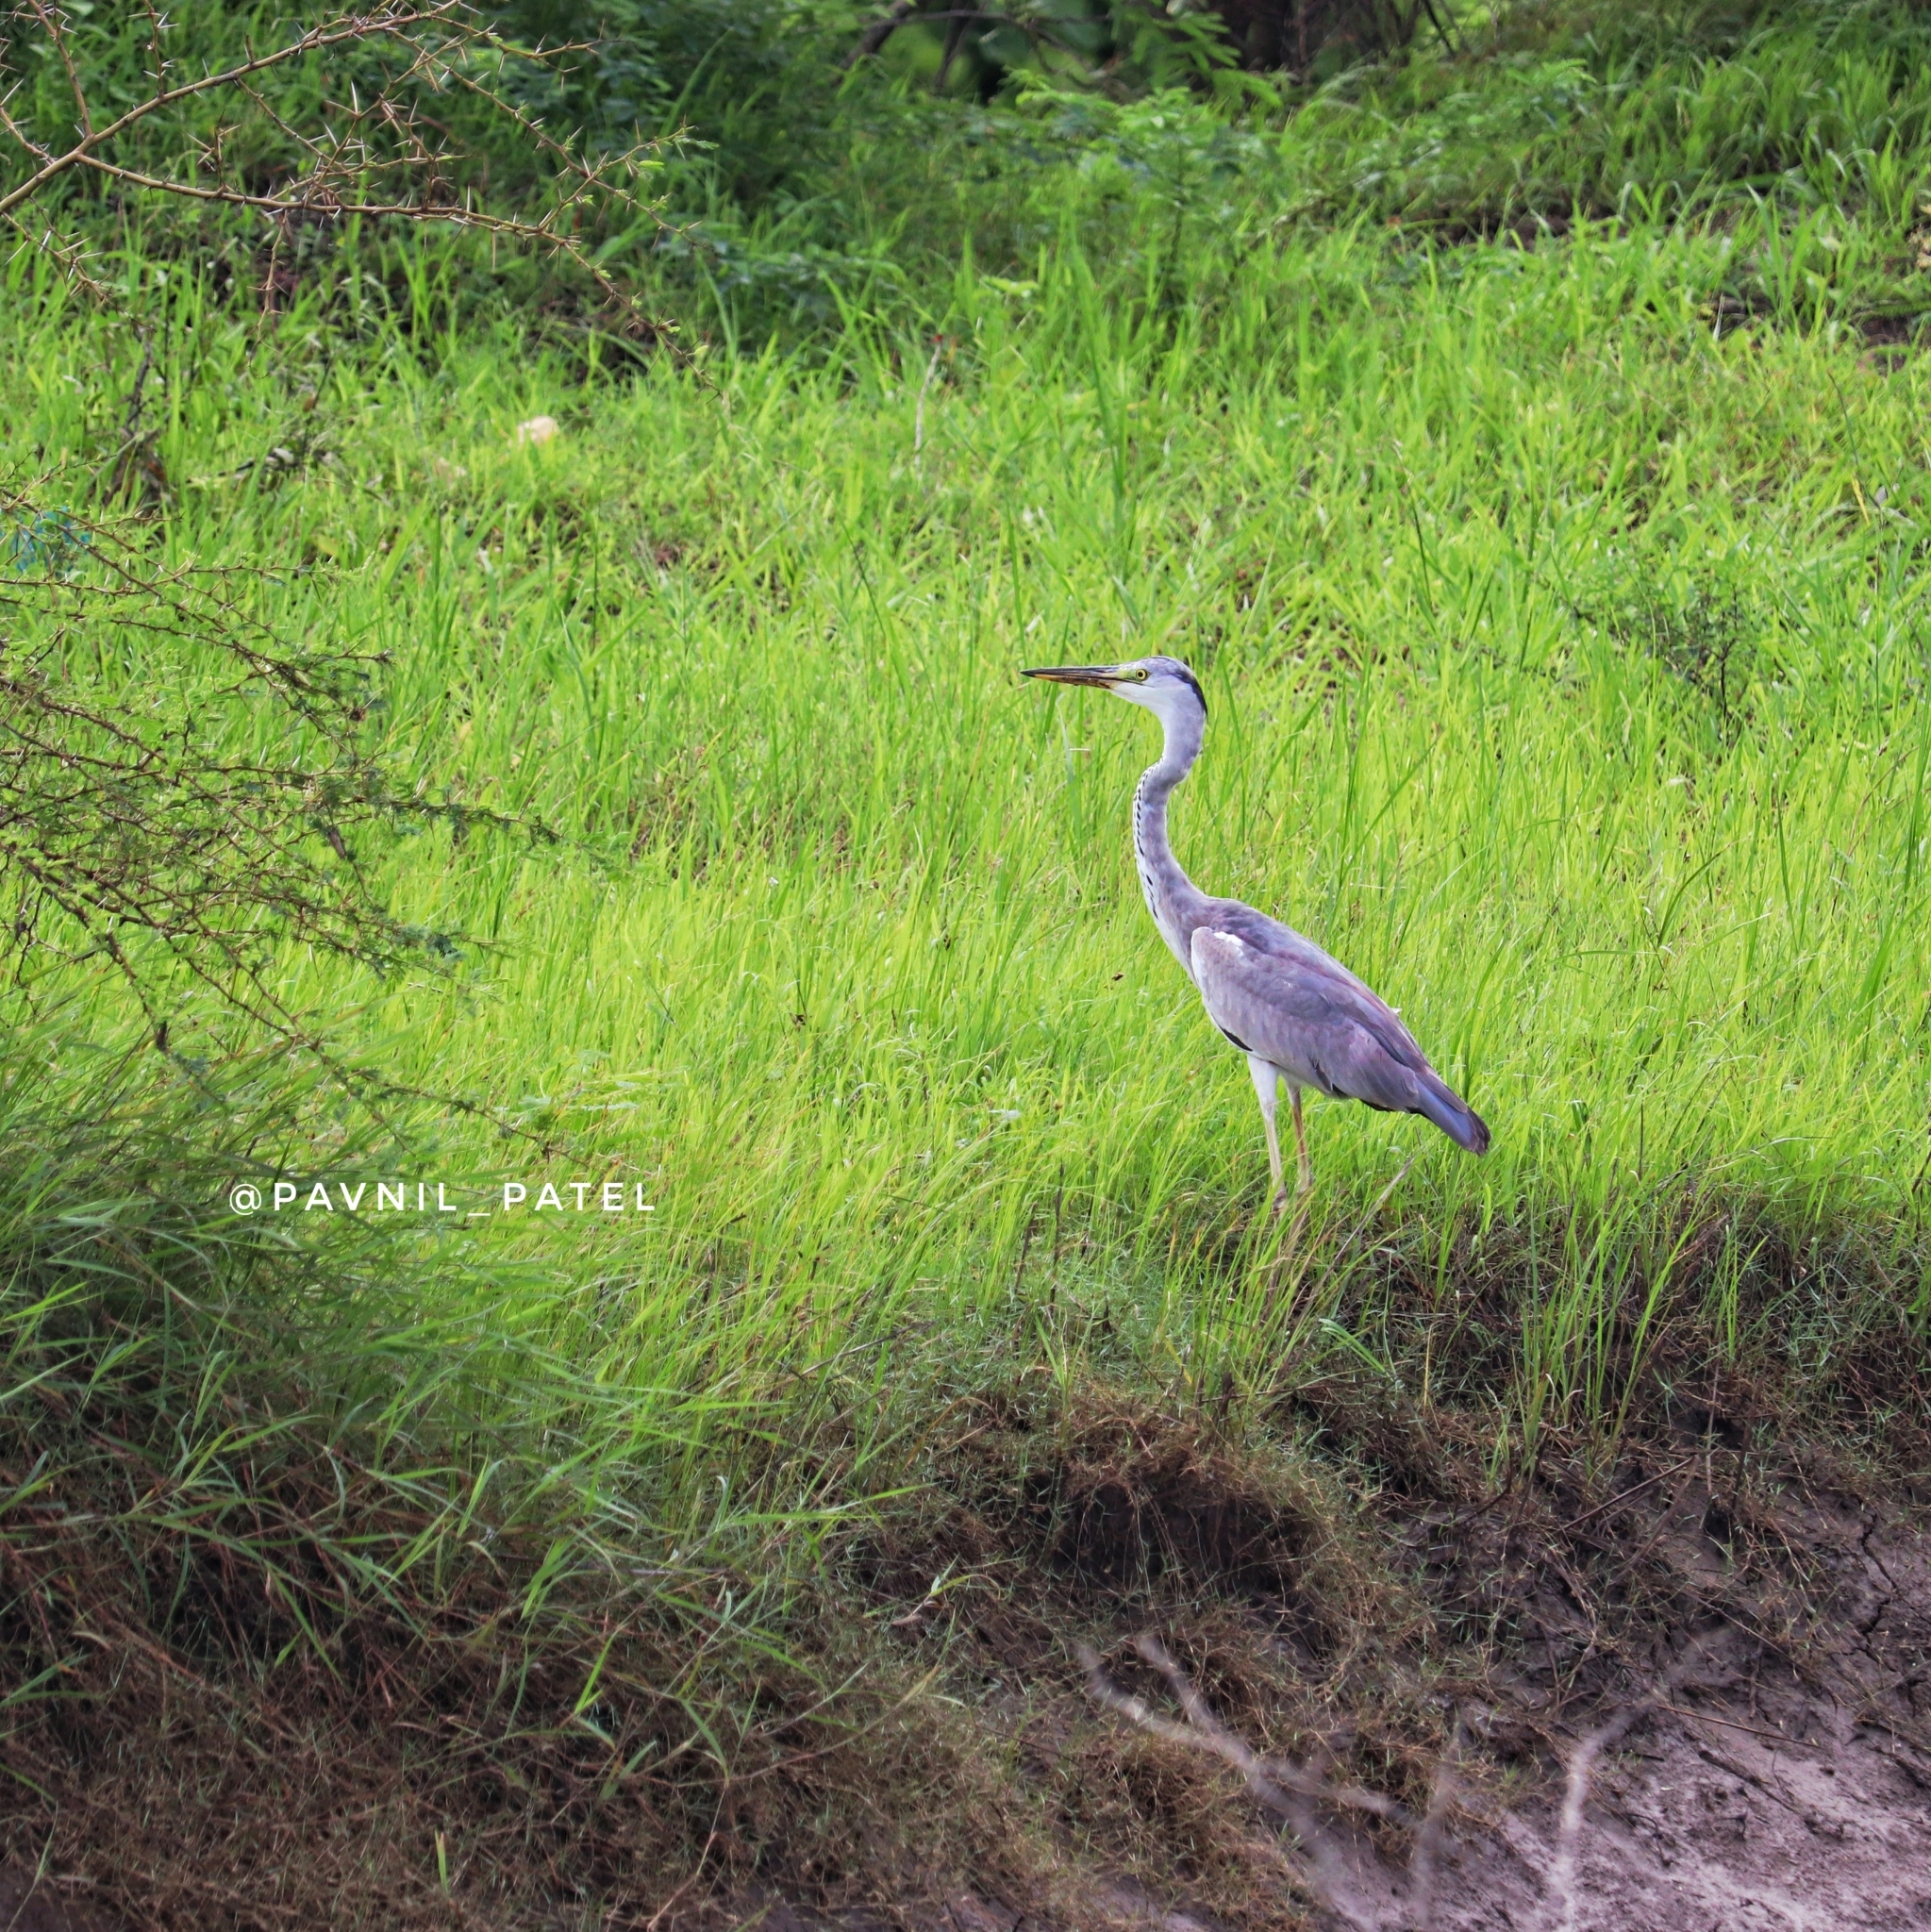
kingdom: Animalia
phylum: Chordata
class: Aves
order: Pelecaniformes
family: Ardeidae
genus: Ardea
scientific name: Ardea cinerea
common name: Grey heron
